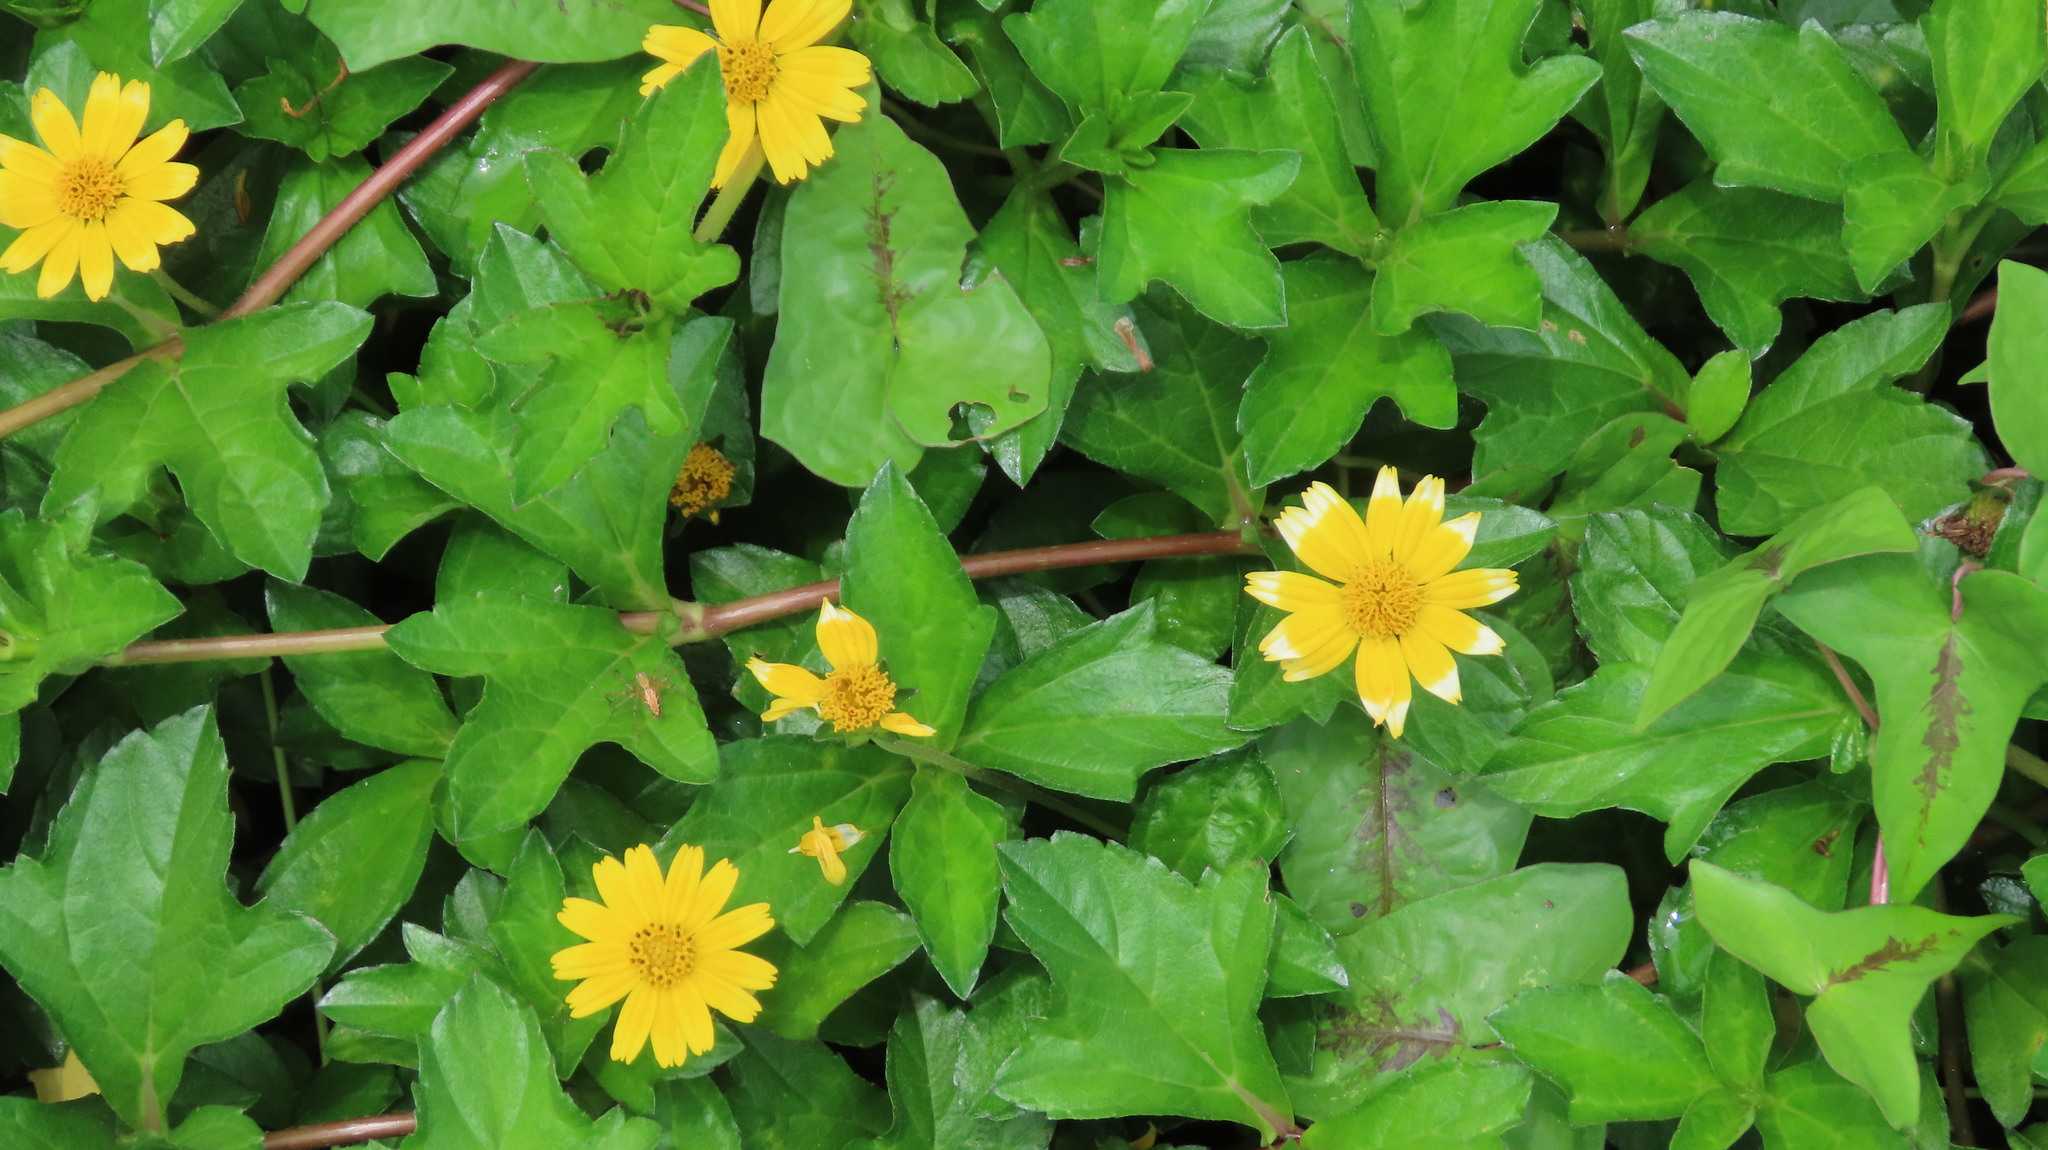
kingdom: Plantae
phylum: Tracheophyta
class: Magnoliopsida
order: Asterales
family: Asteraceae
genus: Sphagneticola
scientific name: Sphagneticola trilobata
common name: Bay biscayne creeping-oxeye
